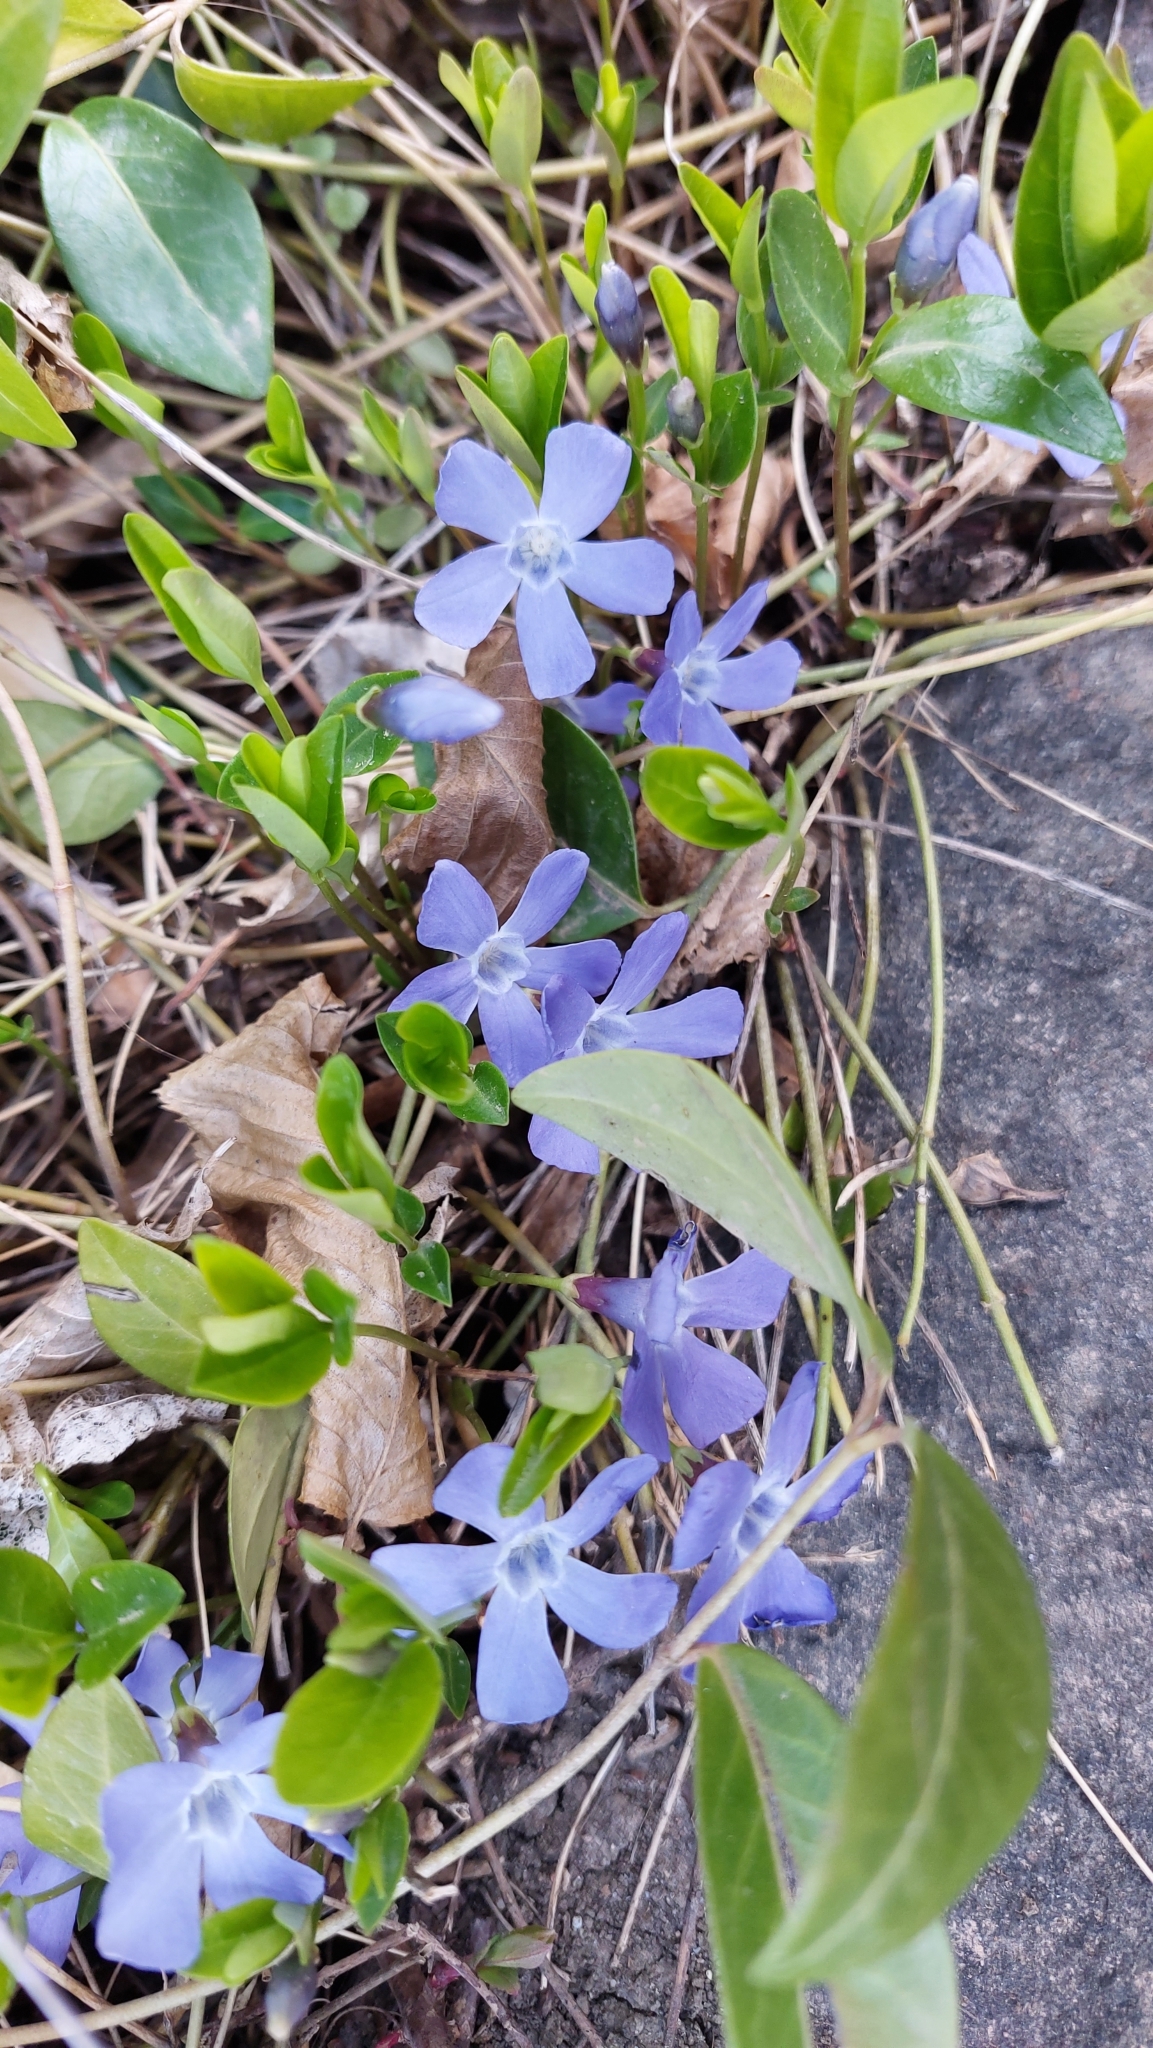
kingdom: Plantae
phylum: Tracheophyta
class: Magnoliopsida
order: Gentianales
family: Apocynaceae
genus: Vinca
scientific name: Vinca minor
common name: Lesser periwinkle
